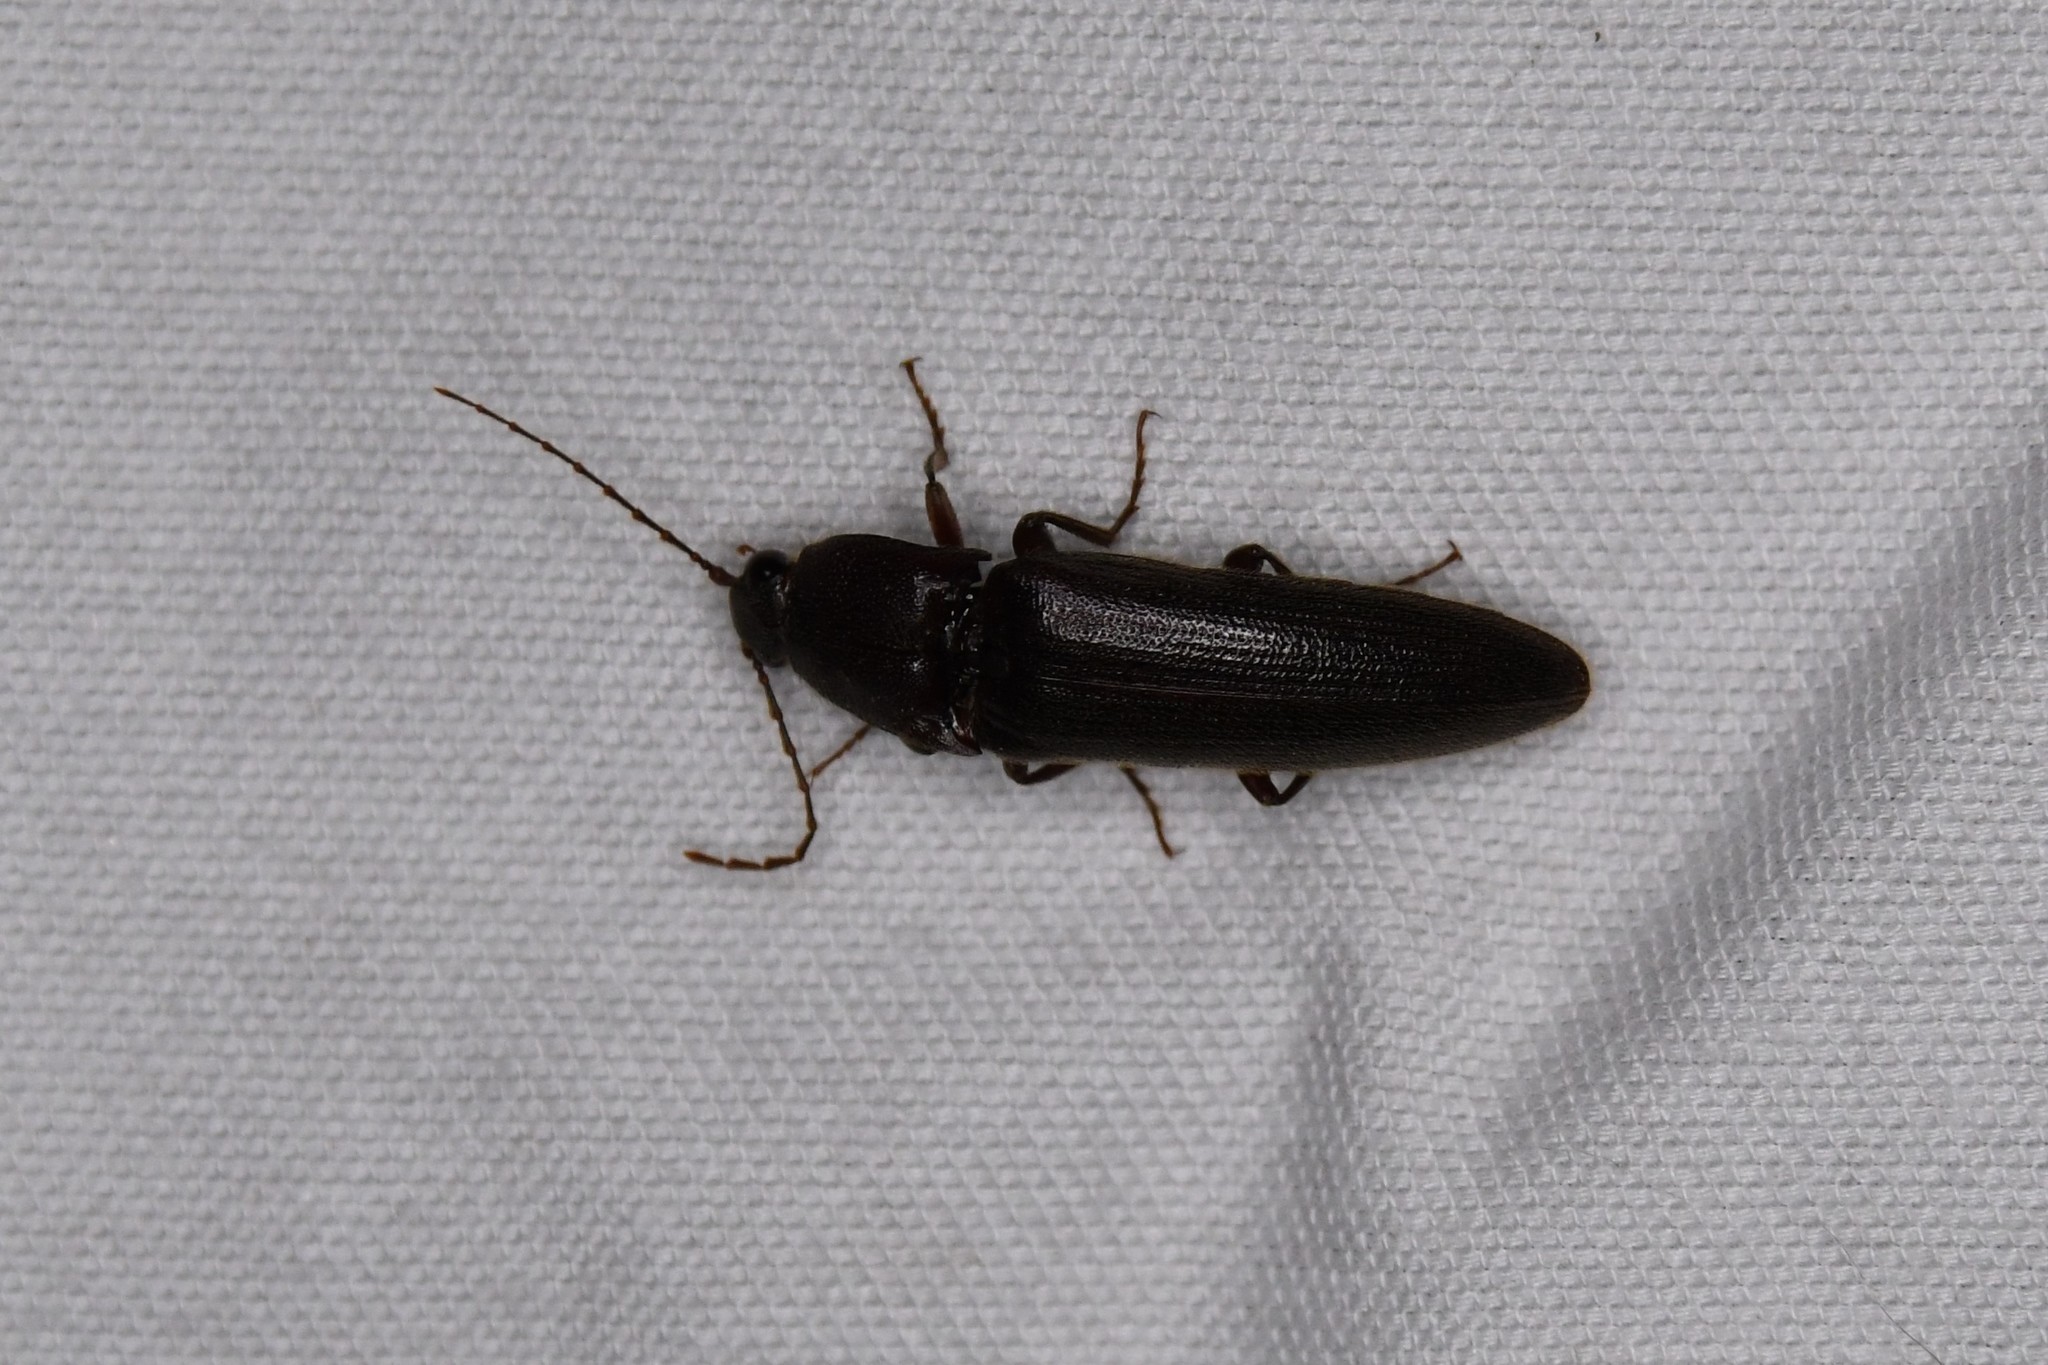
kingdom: Animalia
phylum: Arthropoda
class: Insecta
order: Coleoptera
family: Elateridae
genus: Melanotus
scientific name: Melanotus castanipes
